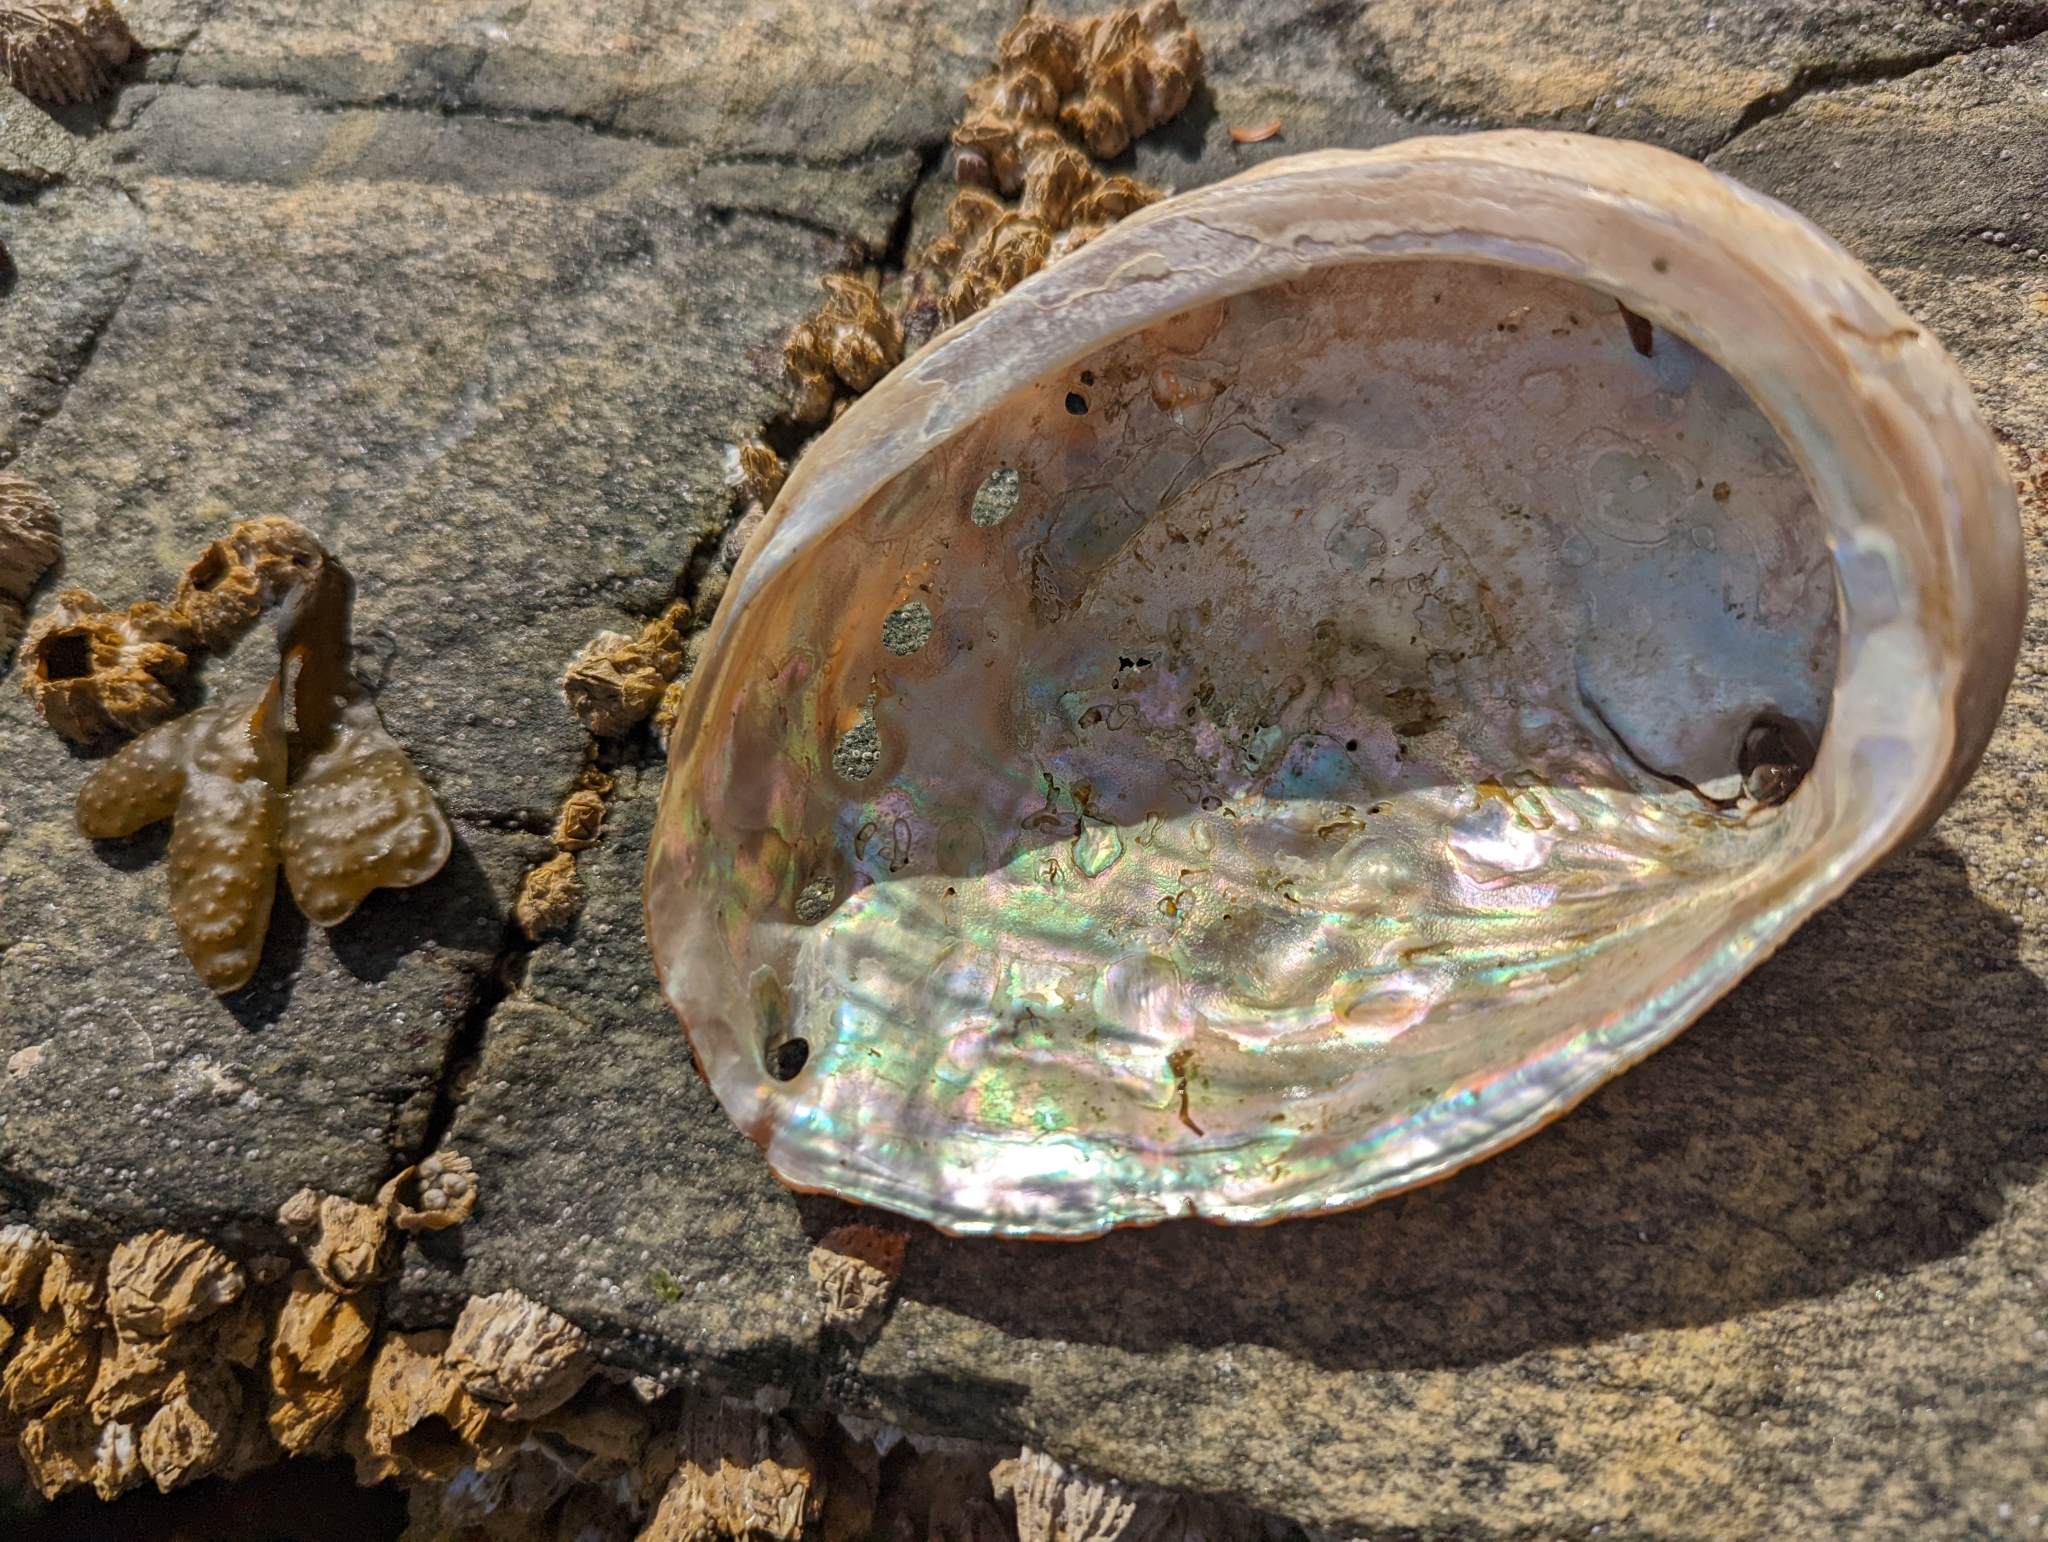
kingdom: Animalia
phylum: Mollusca
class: Gastropoda
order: Lepetellida
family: Haliotidae
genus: Haliotis
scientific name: Haliotis kamtschatkana
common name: Pinto abalone
